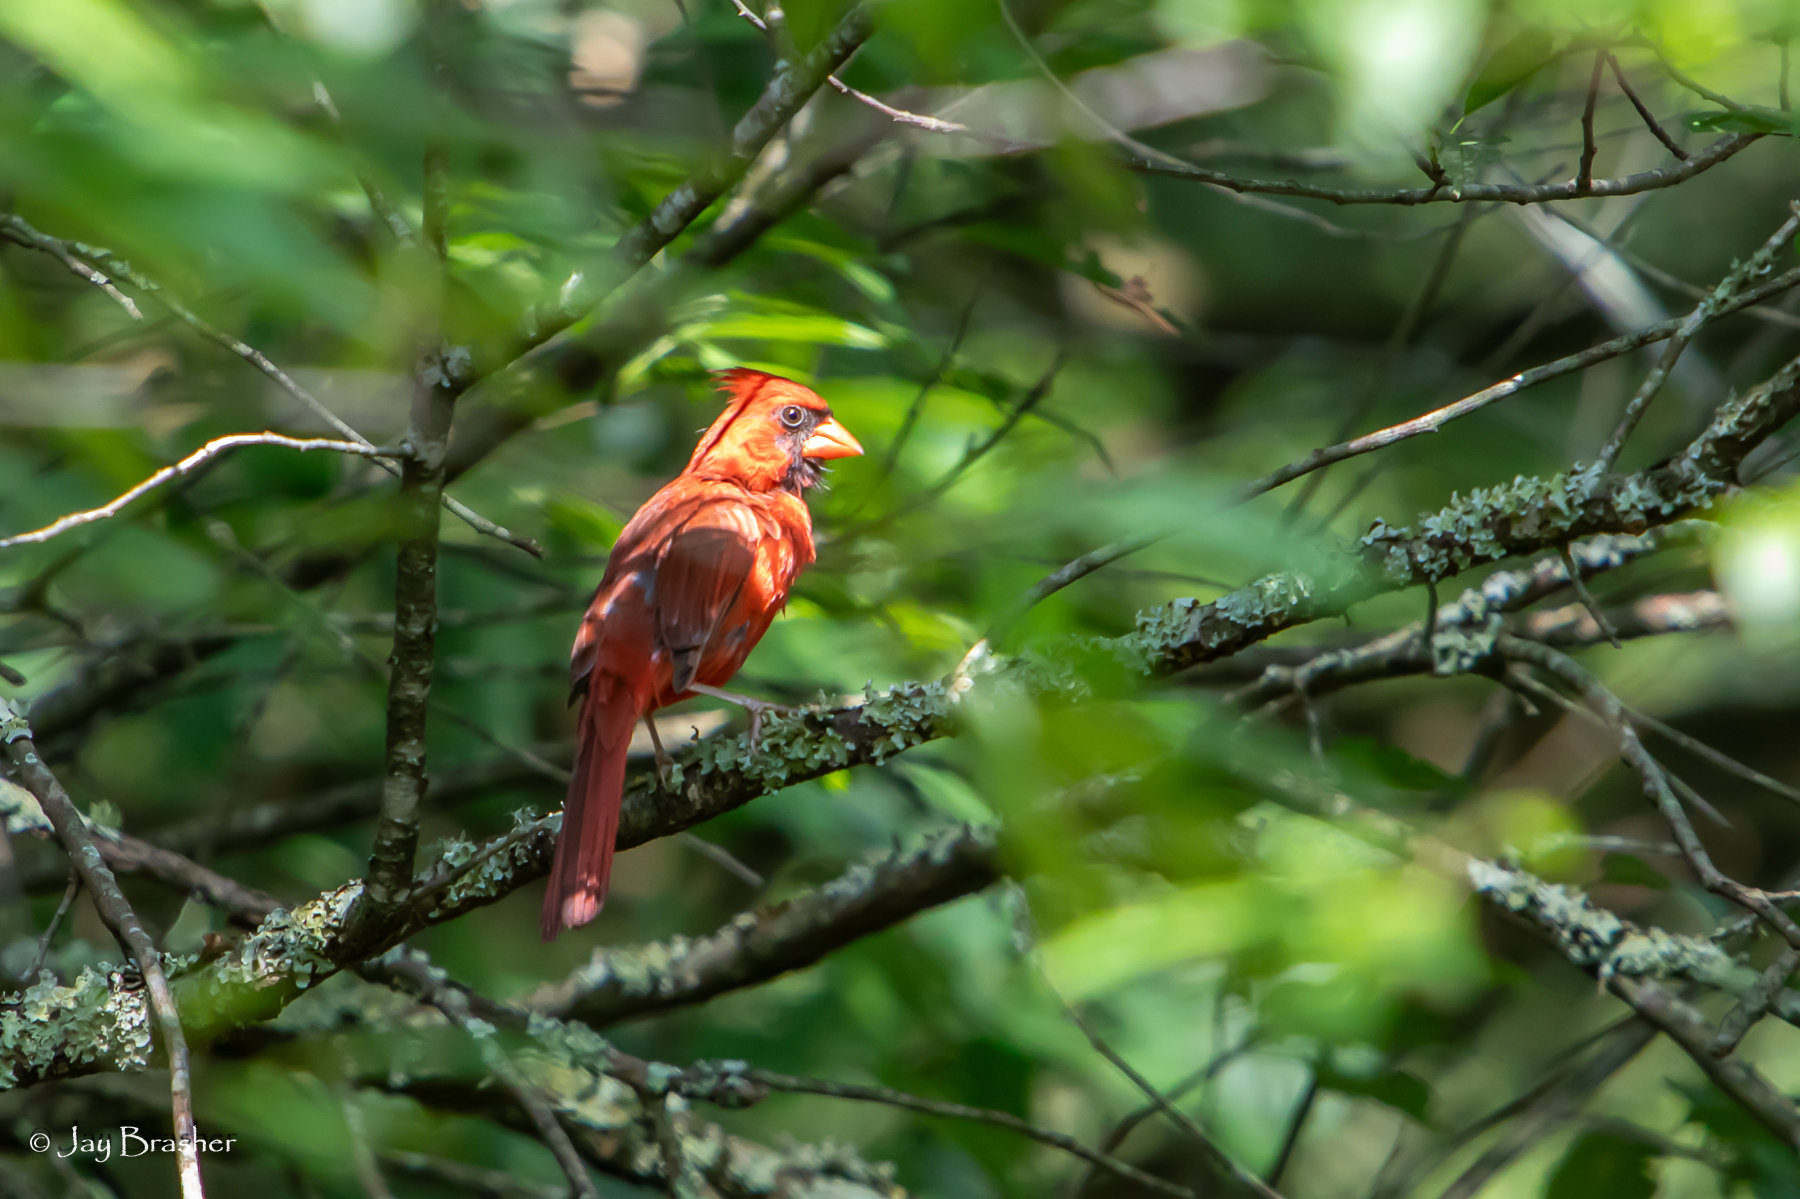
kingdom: Animalia
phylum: Chordata
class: Aves
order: Passeriformes
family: Cardinalidae
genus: Cardinalis
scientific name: Cardinalis cardinalis
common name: Northern cardinal
